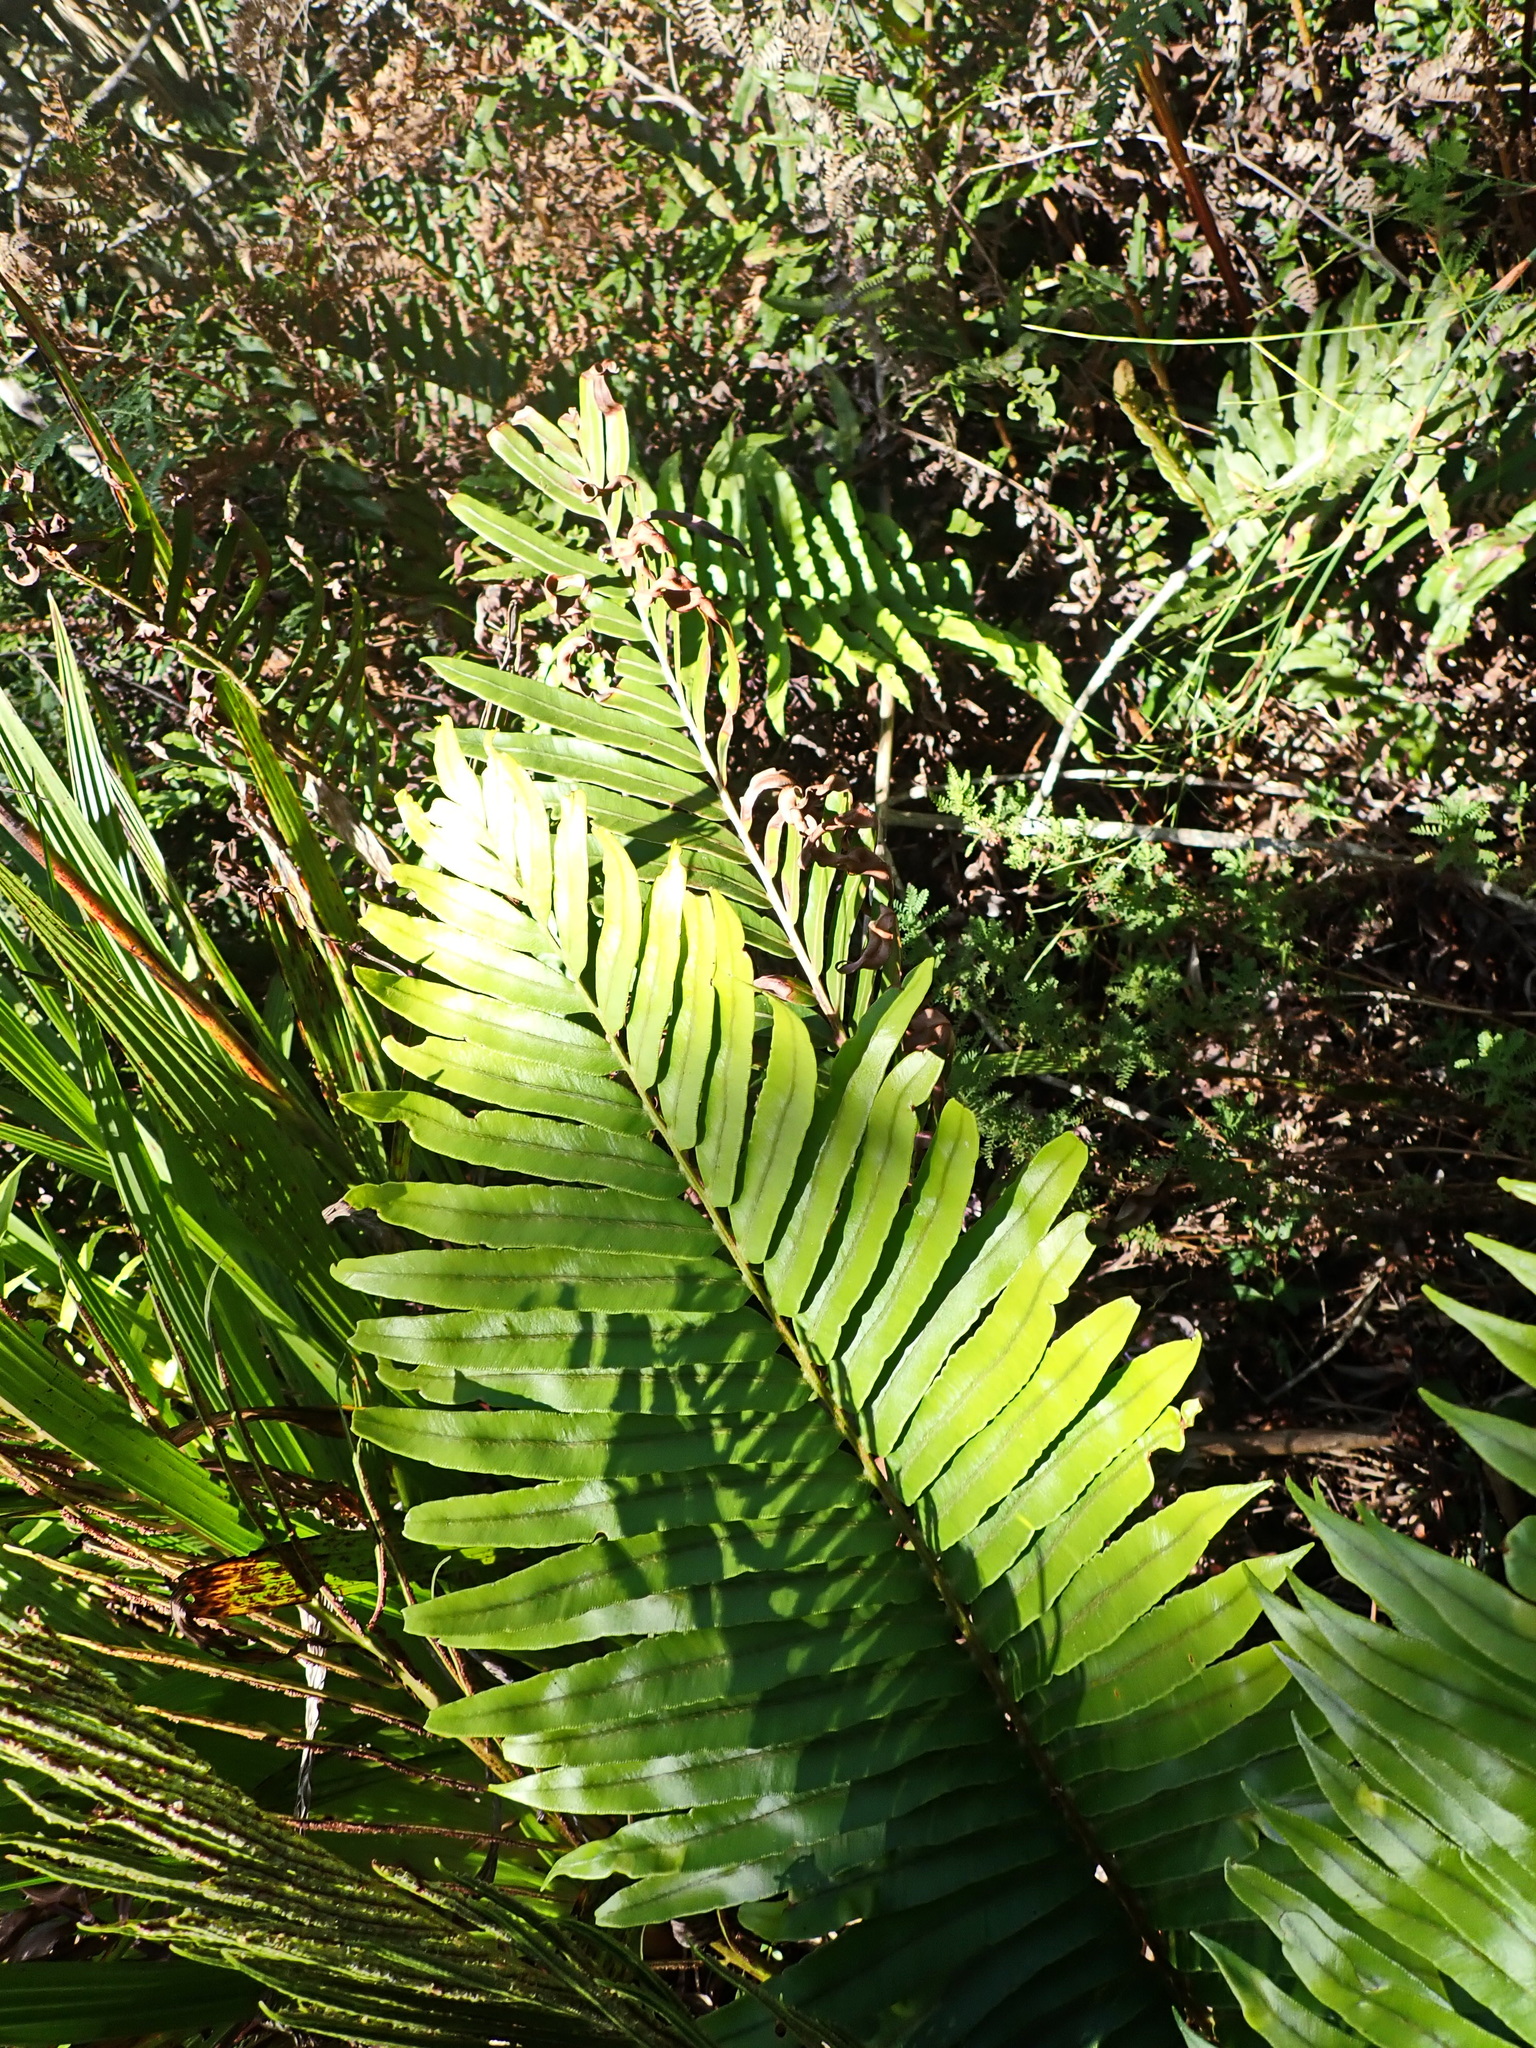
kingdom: Plantae
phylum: Tracheophyta
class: Polypodiopsida
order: Polypodiales
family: Blechnaceae
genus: Lomariocycas
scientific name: Lomariocycas tabularis
